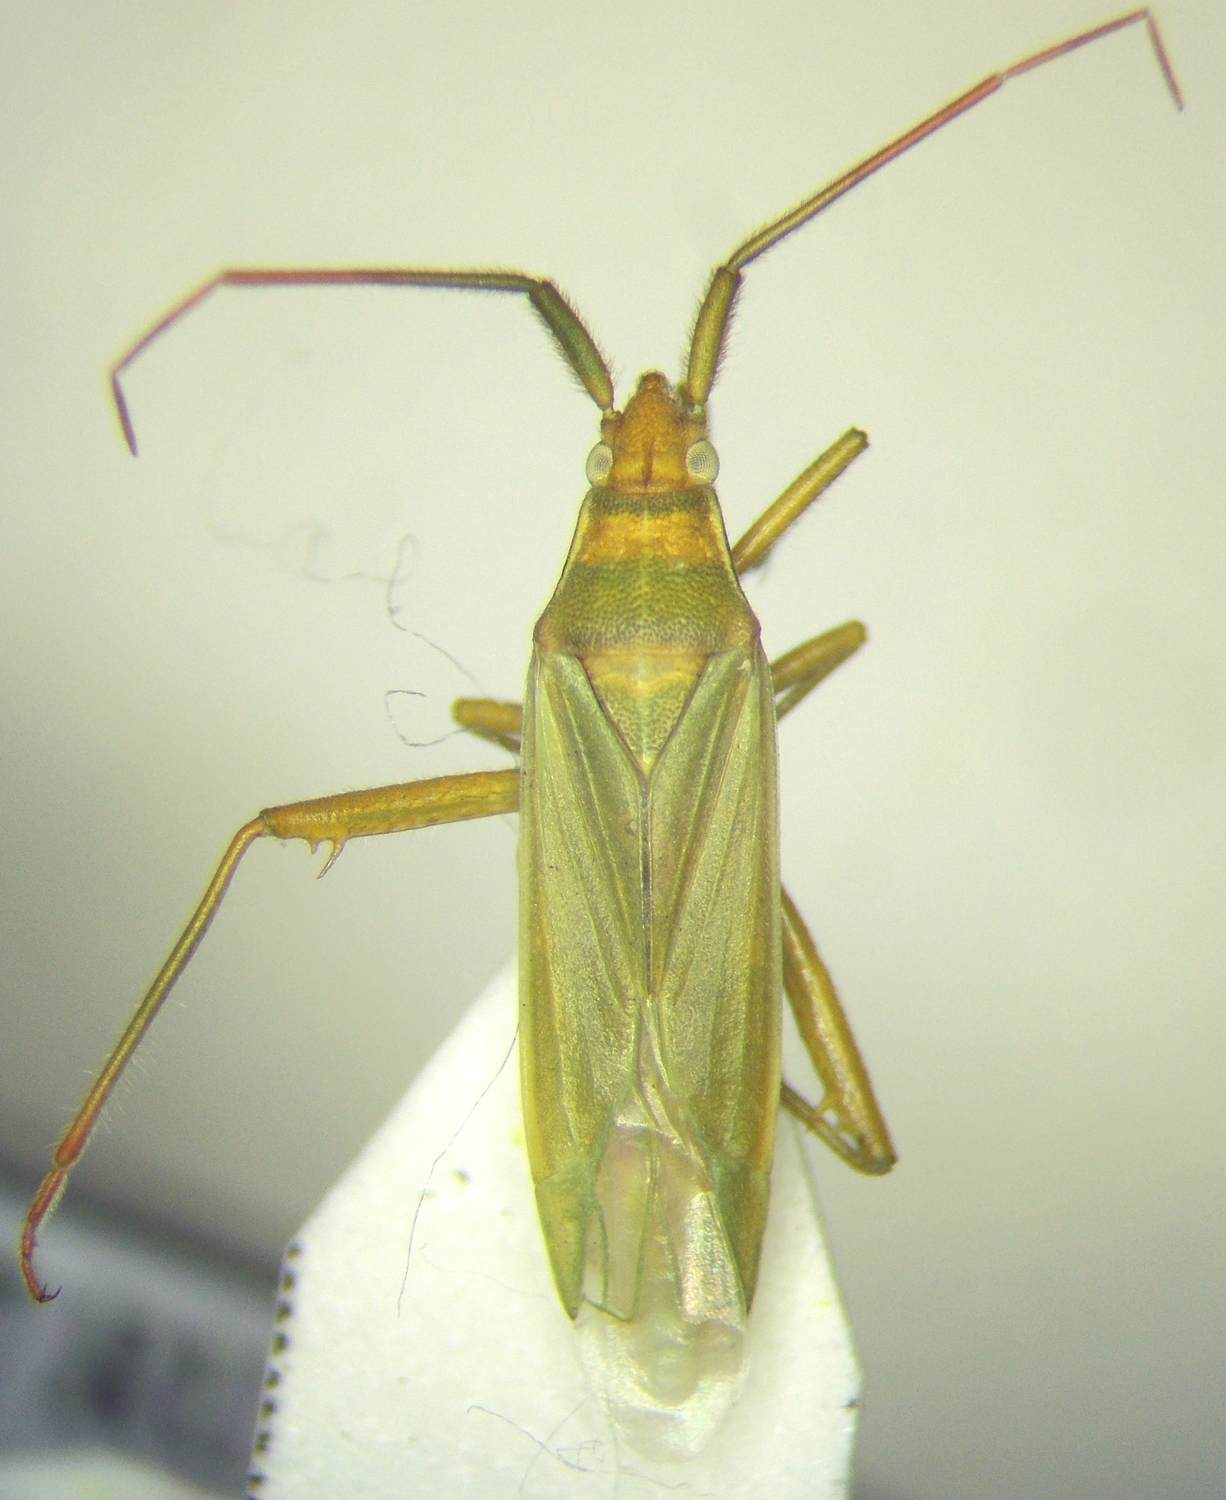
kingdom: Animalia
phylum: Arthropoda
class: Insecta
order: Hemiptera
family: Miridae
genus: Stenodema
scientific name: Stenodema calcarata
